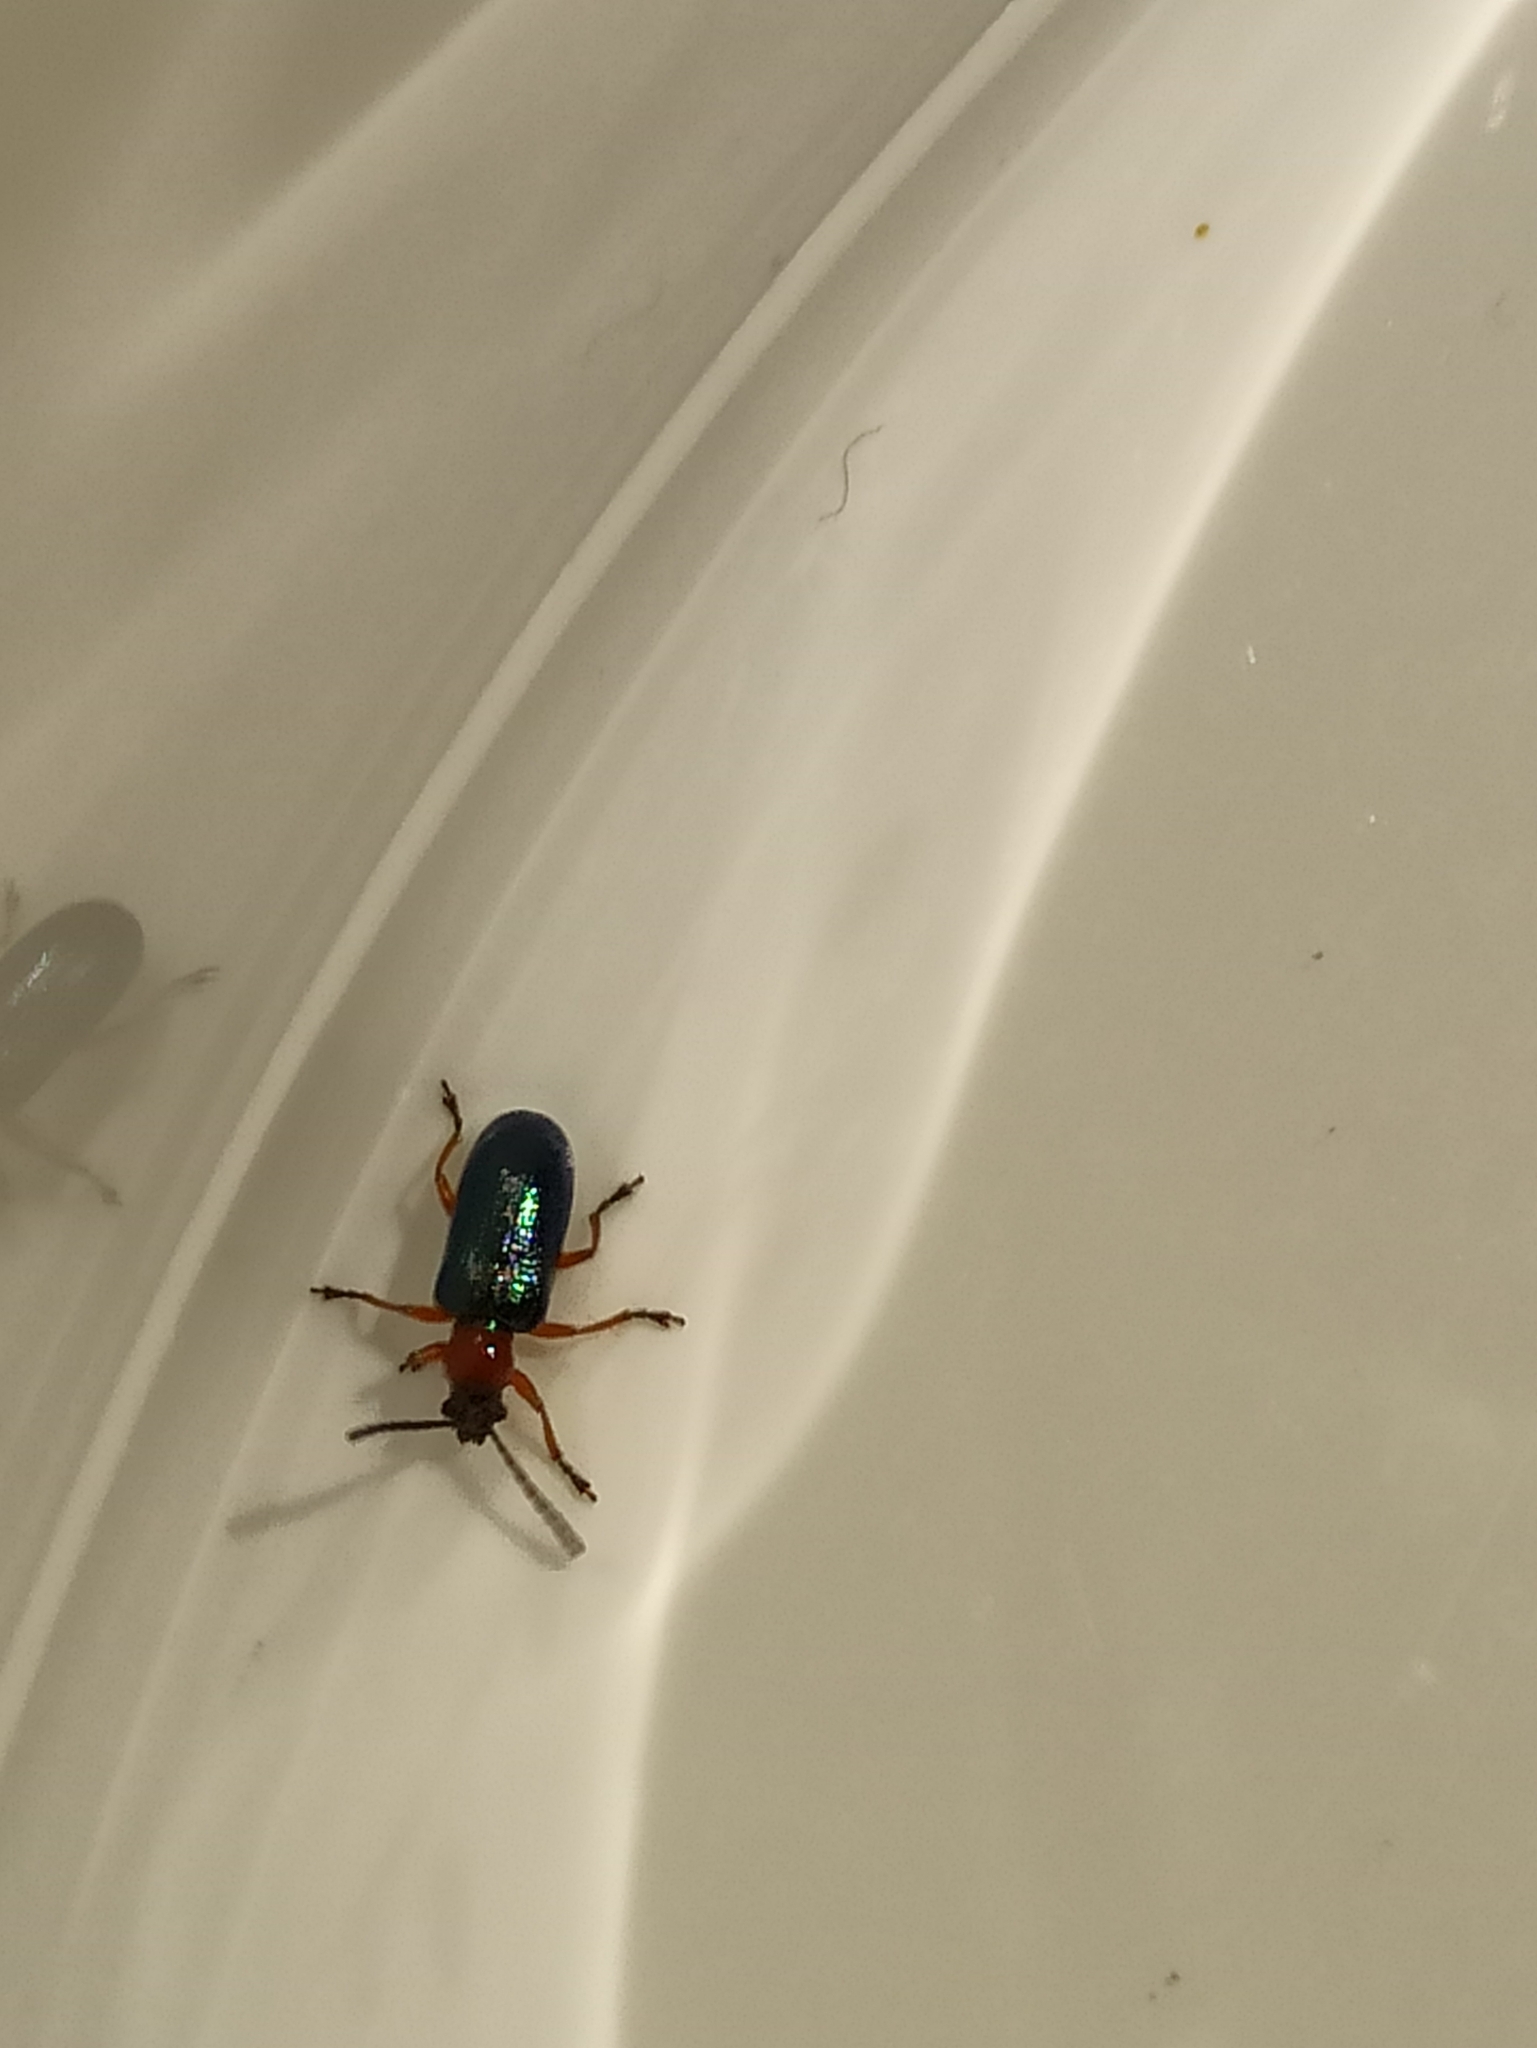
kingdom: Animalia
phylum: Arthropoda
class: Insecta
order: Coleoptera
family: Chrysomelidae
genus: Oulema
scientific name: Oulema
